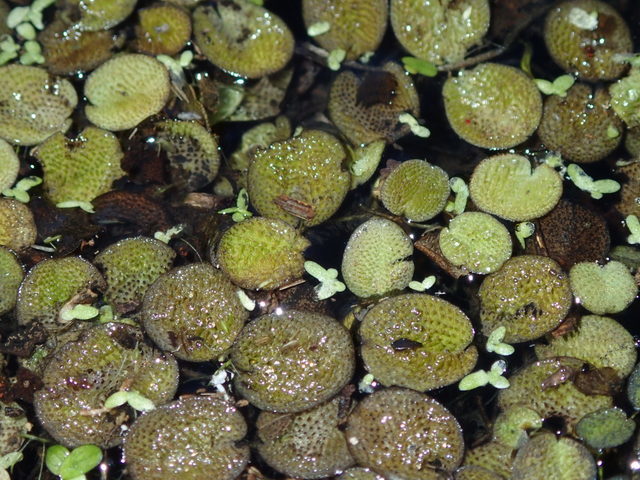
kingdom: Plantae
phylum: Tracheophyta
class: Polypodiopsida
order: Salviniales
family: Salviniaceae
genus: Salvinia
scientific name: Salvinia minima
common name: Water spangles
